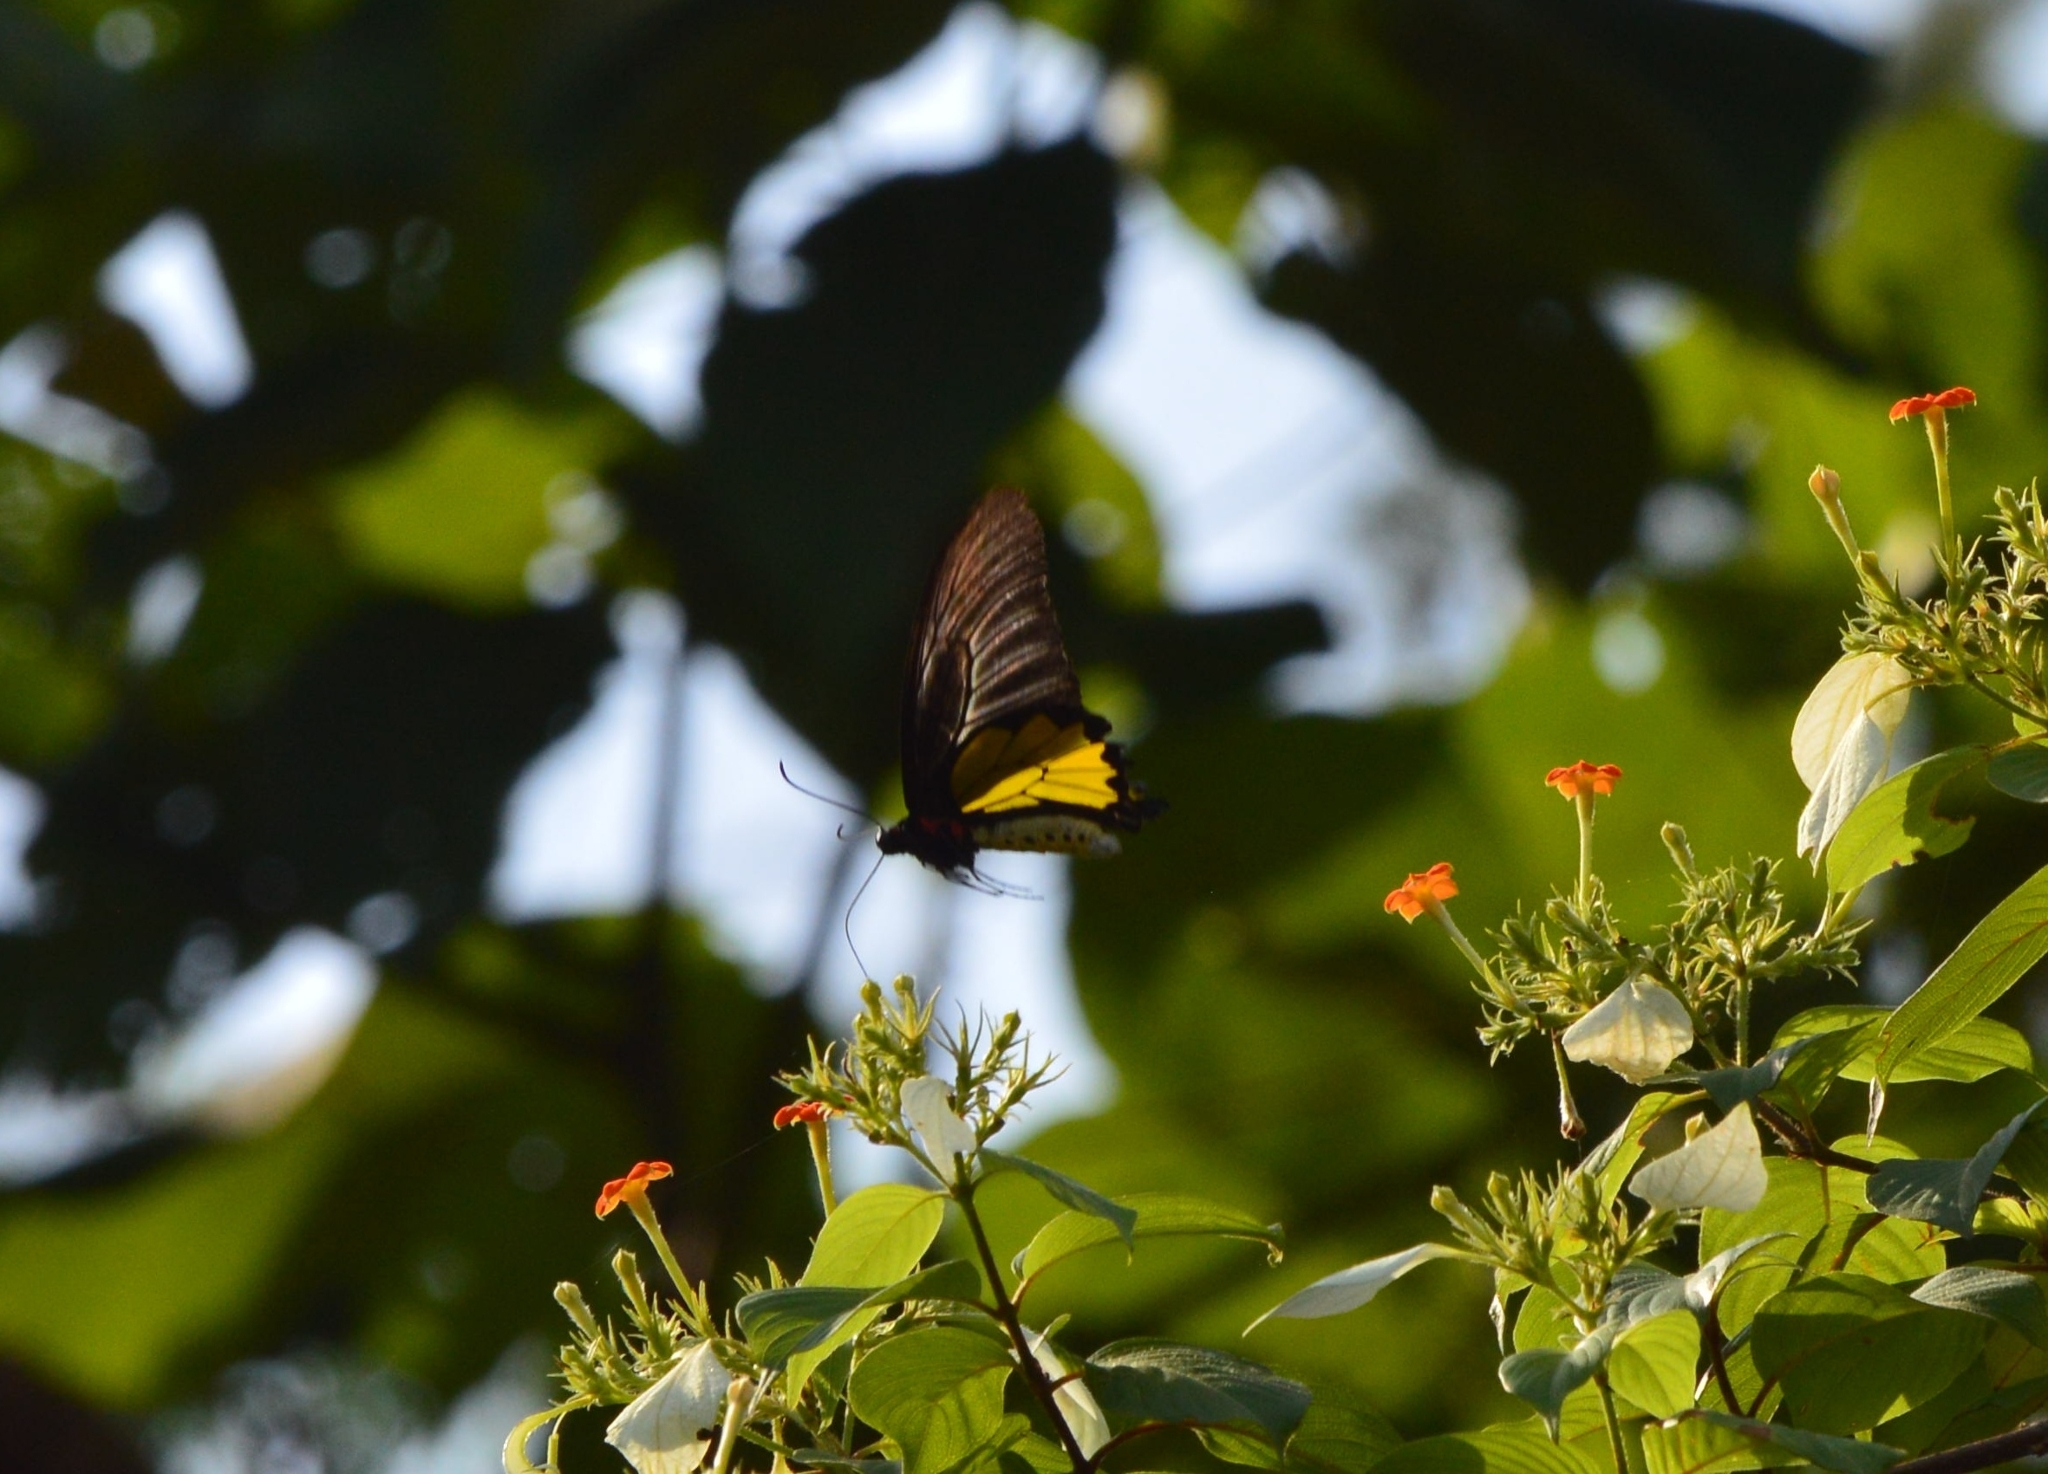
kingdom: Animalia
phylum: Arthropoda
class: Insecta
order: Lepidoptera
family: Papilionidae
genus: Troides
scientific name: Troides minos
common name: Malabar birdwing
